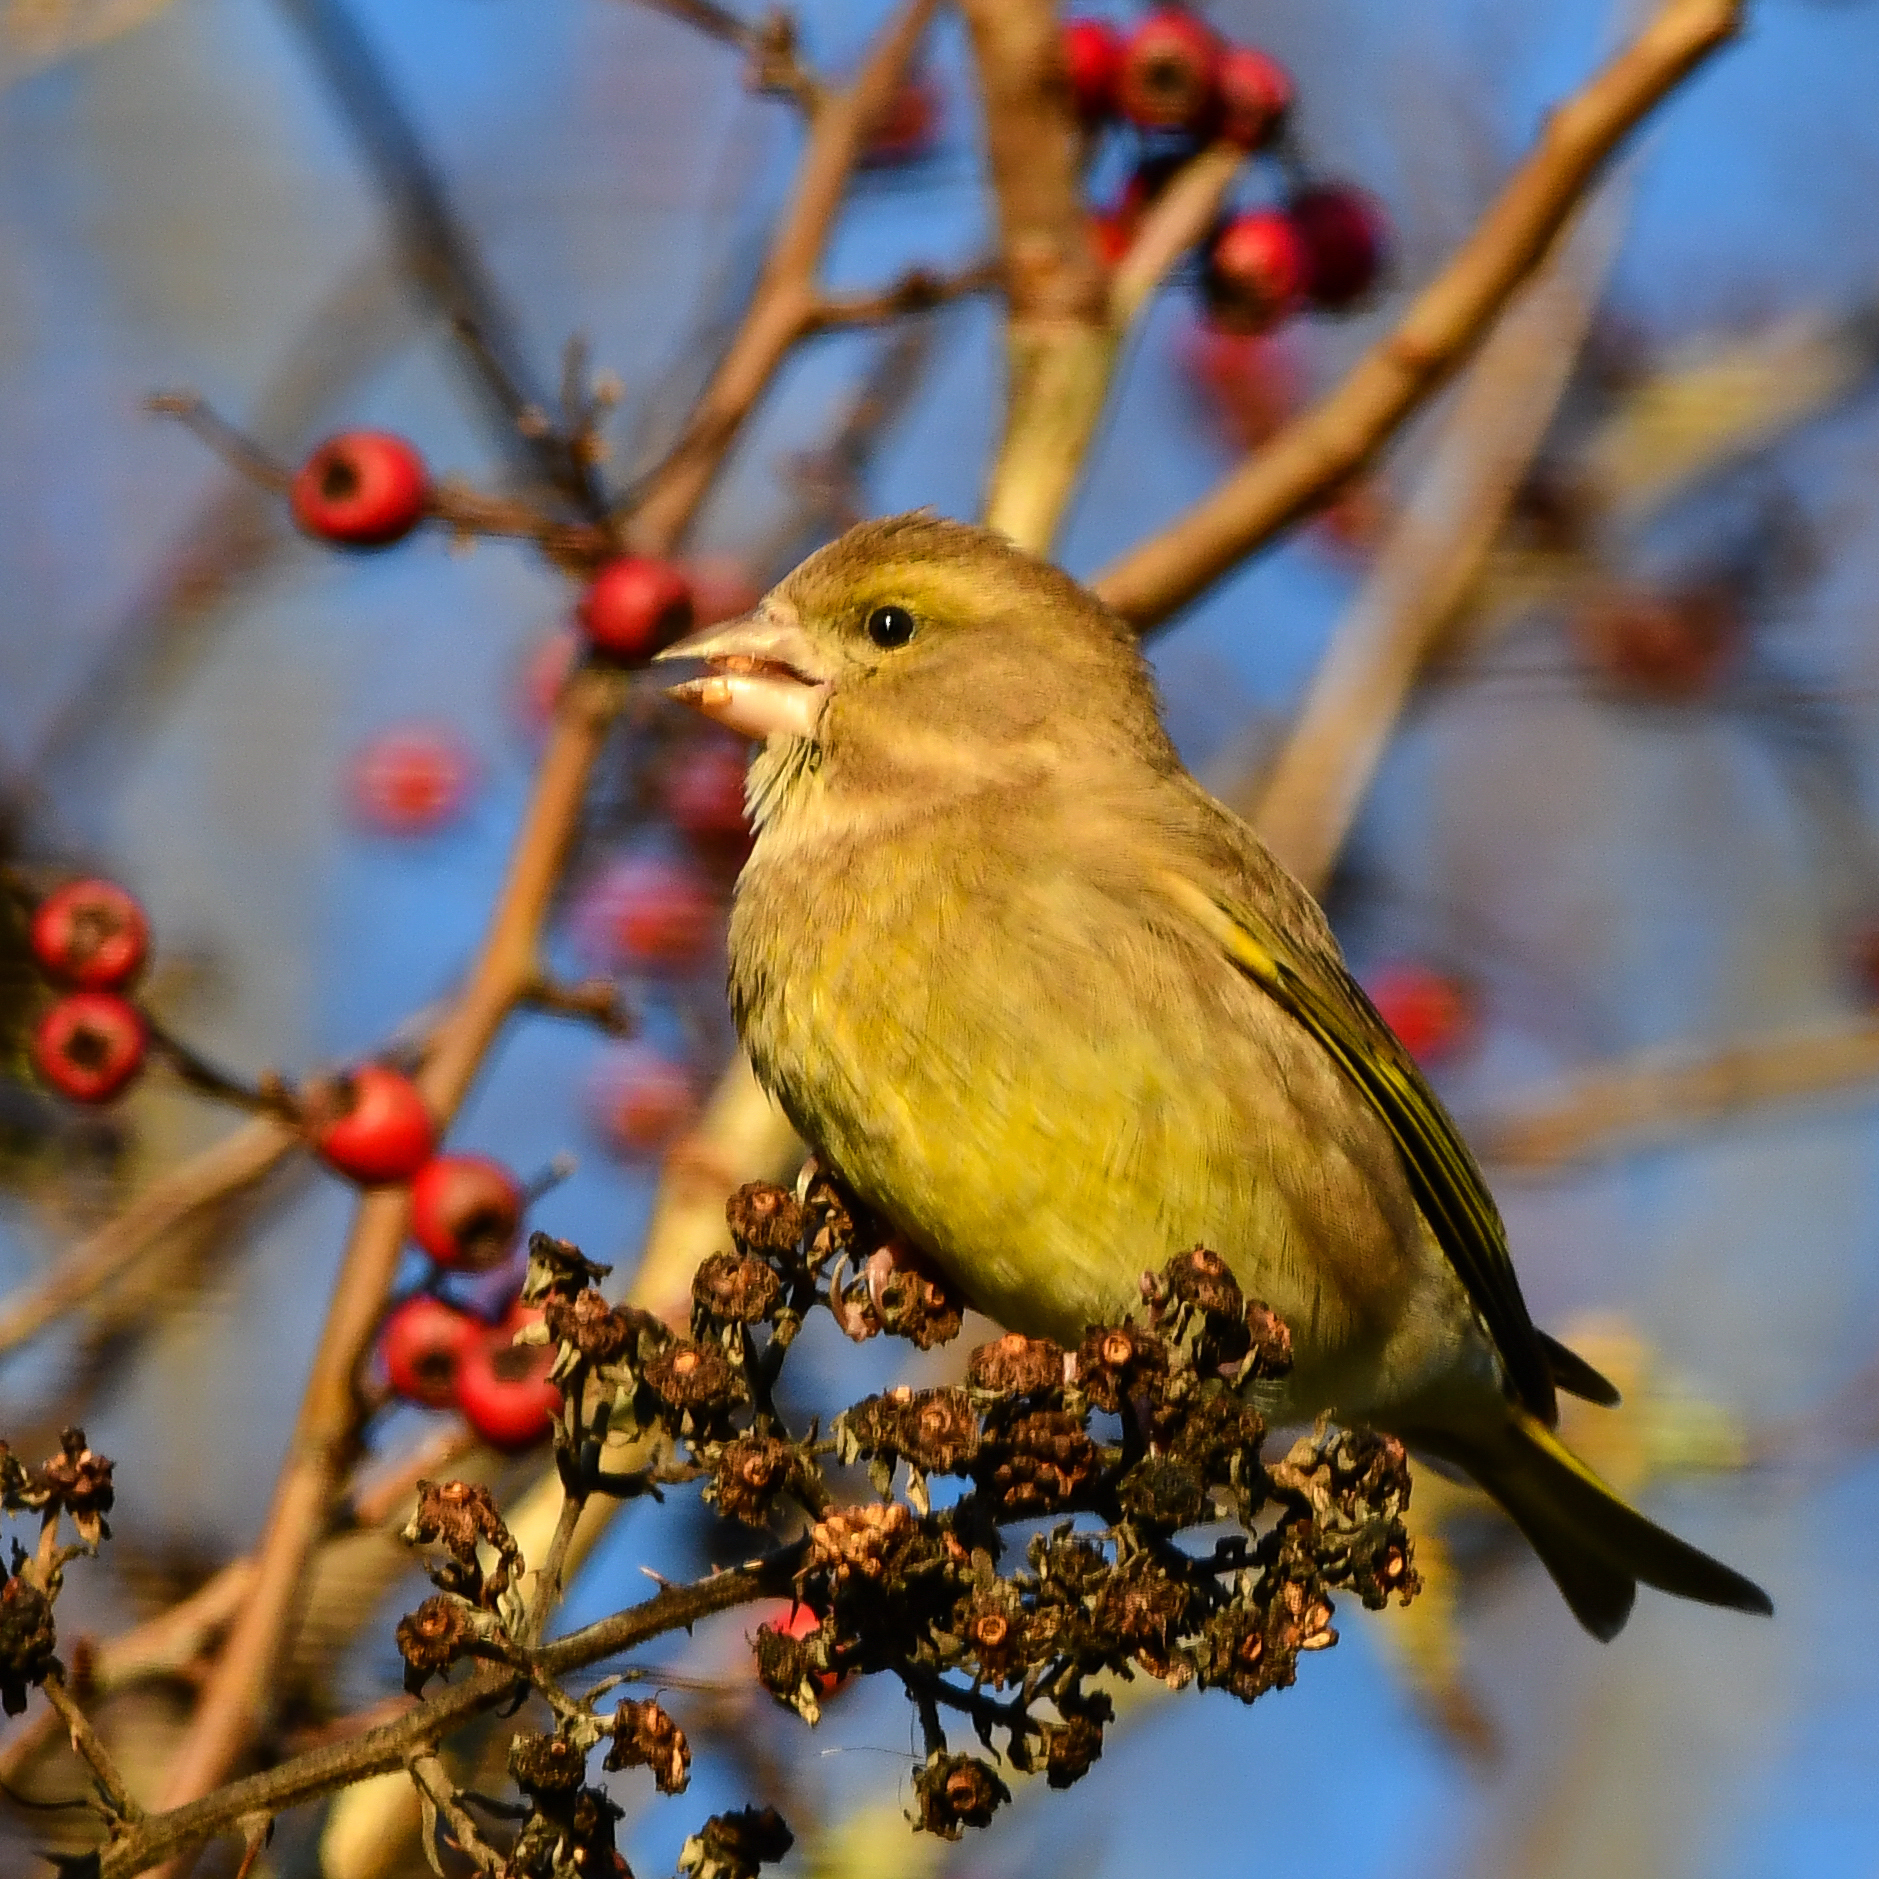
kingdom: Plantae
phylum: Tracheophyta
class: Liliopsida
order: Poales
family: Poaceae
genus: Chloris
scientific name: Chloris chloris
